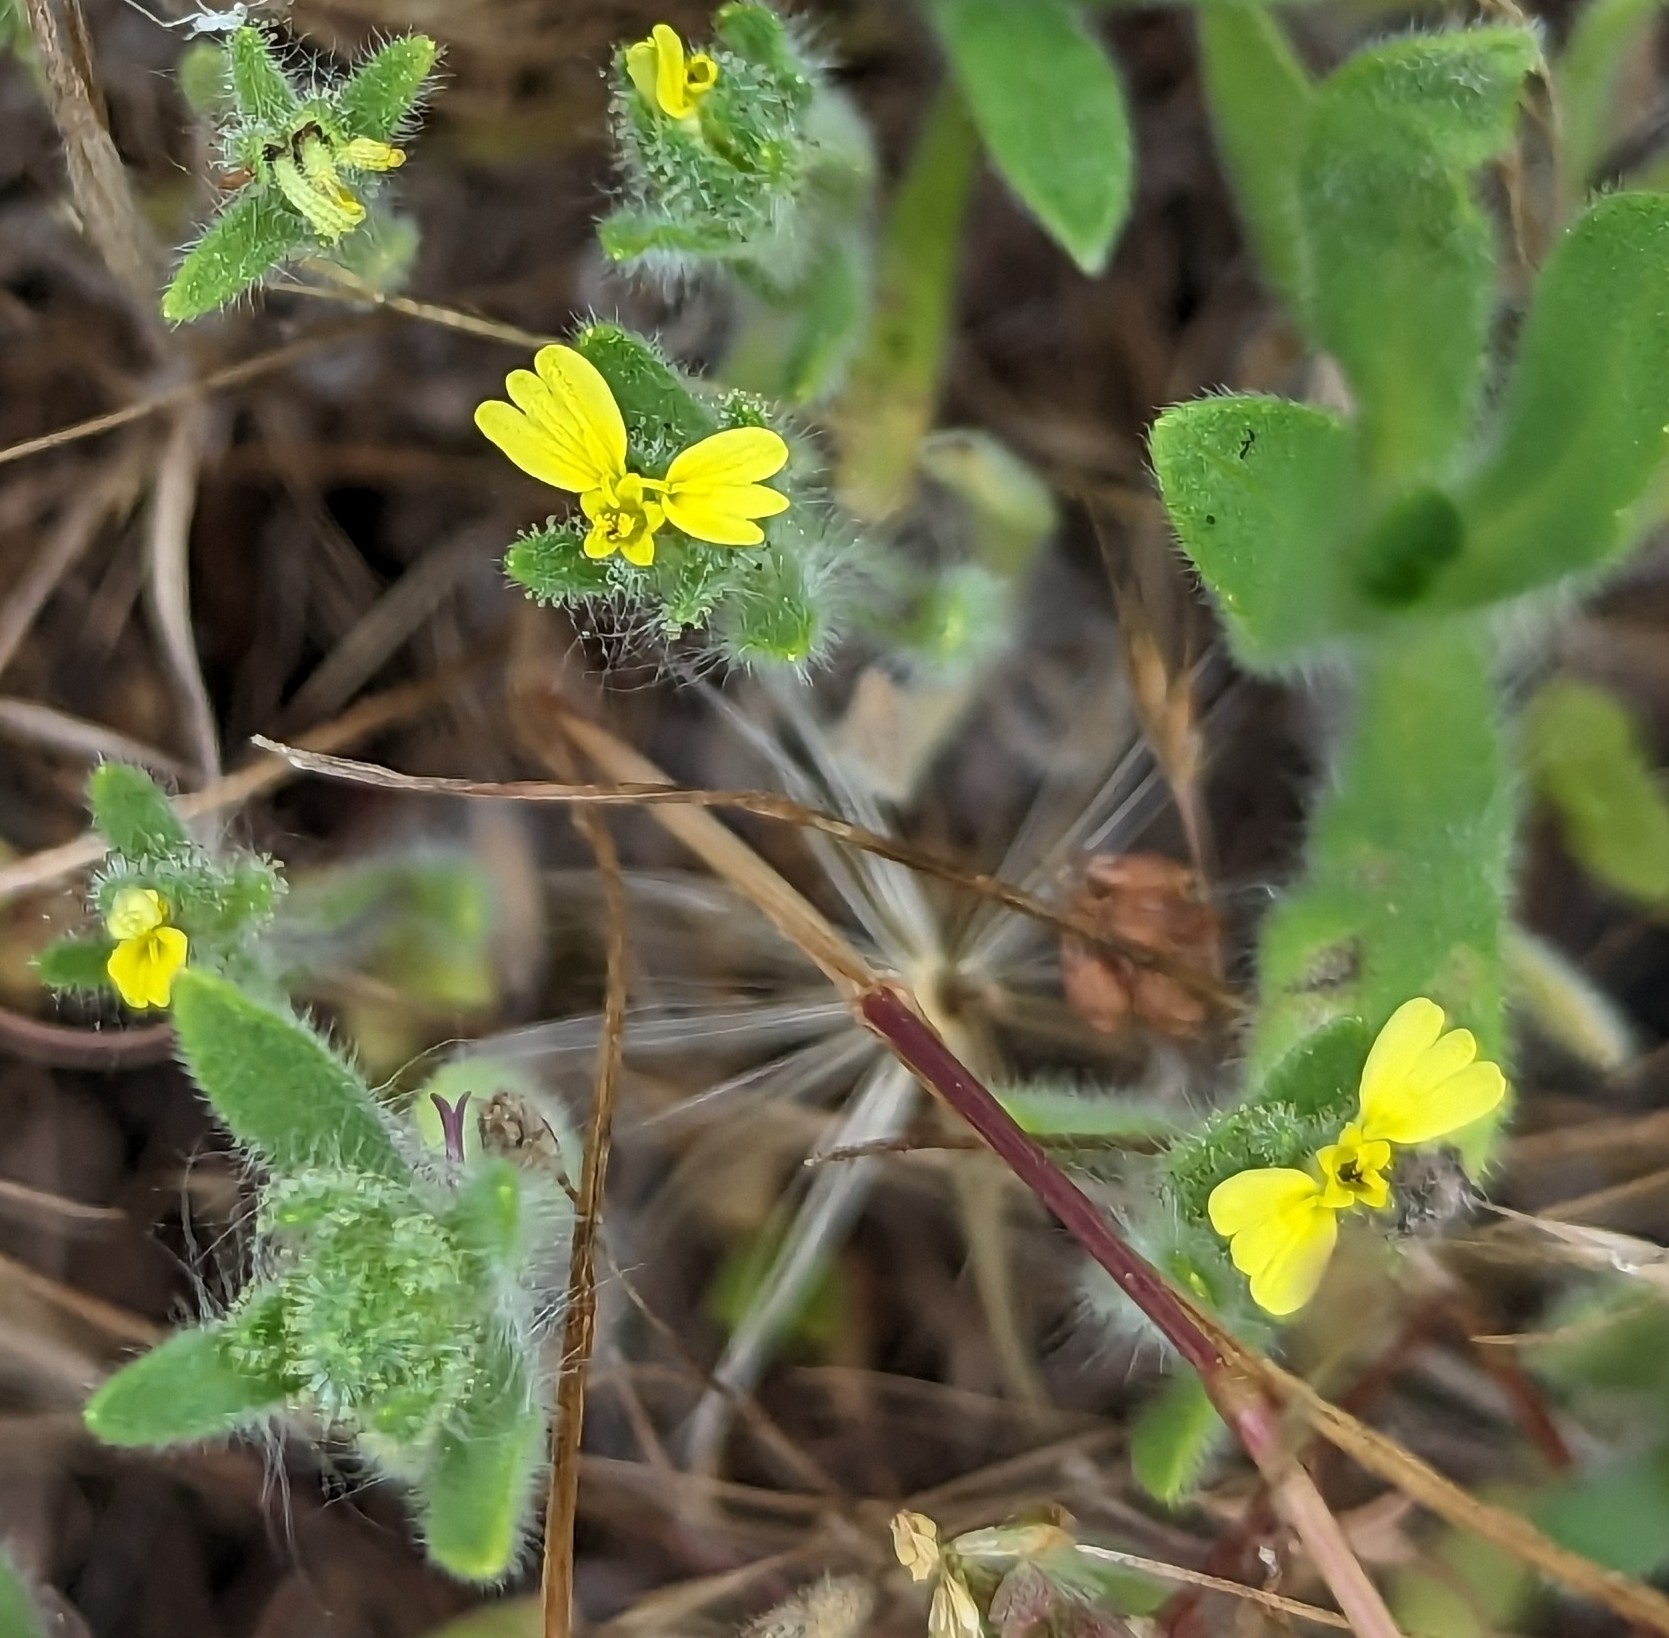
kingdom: Plantae
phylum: Tracheophyta
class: Magnoliopsida
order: Asterales
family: Asteraceae
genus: Madia
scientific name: Madia gracilis
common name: Grassy tarweed
